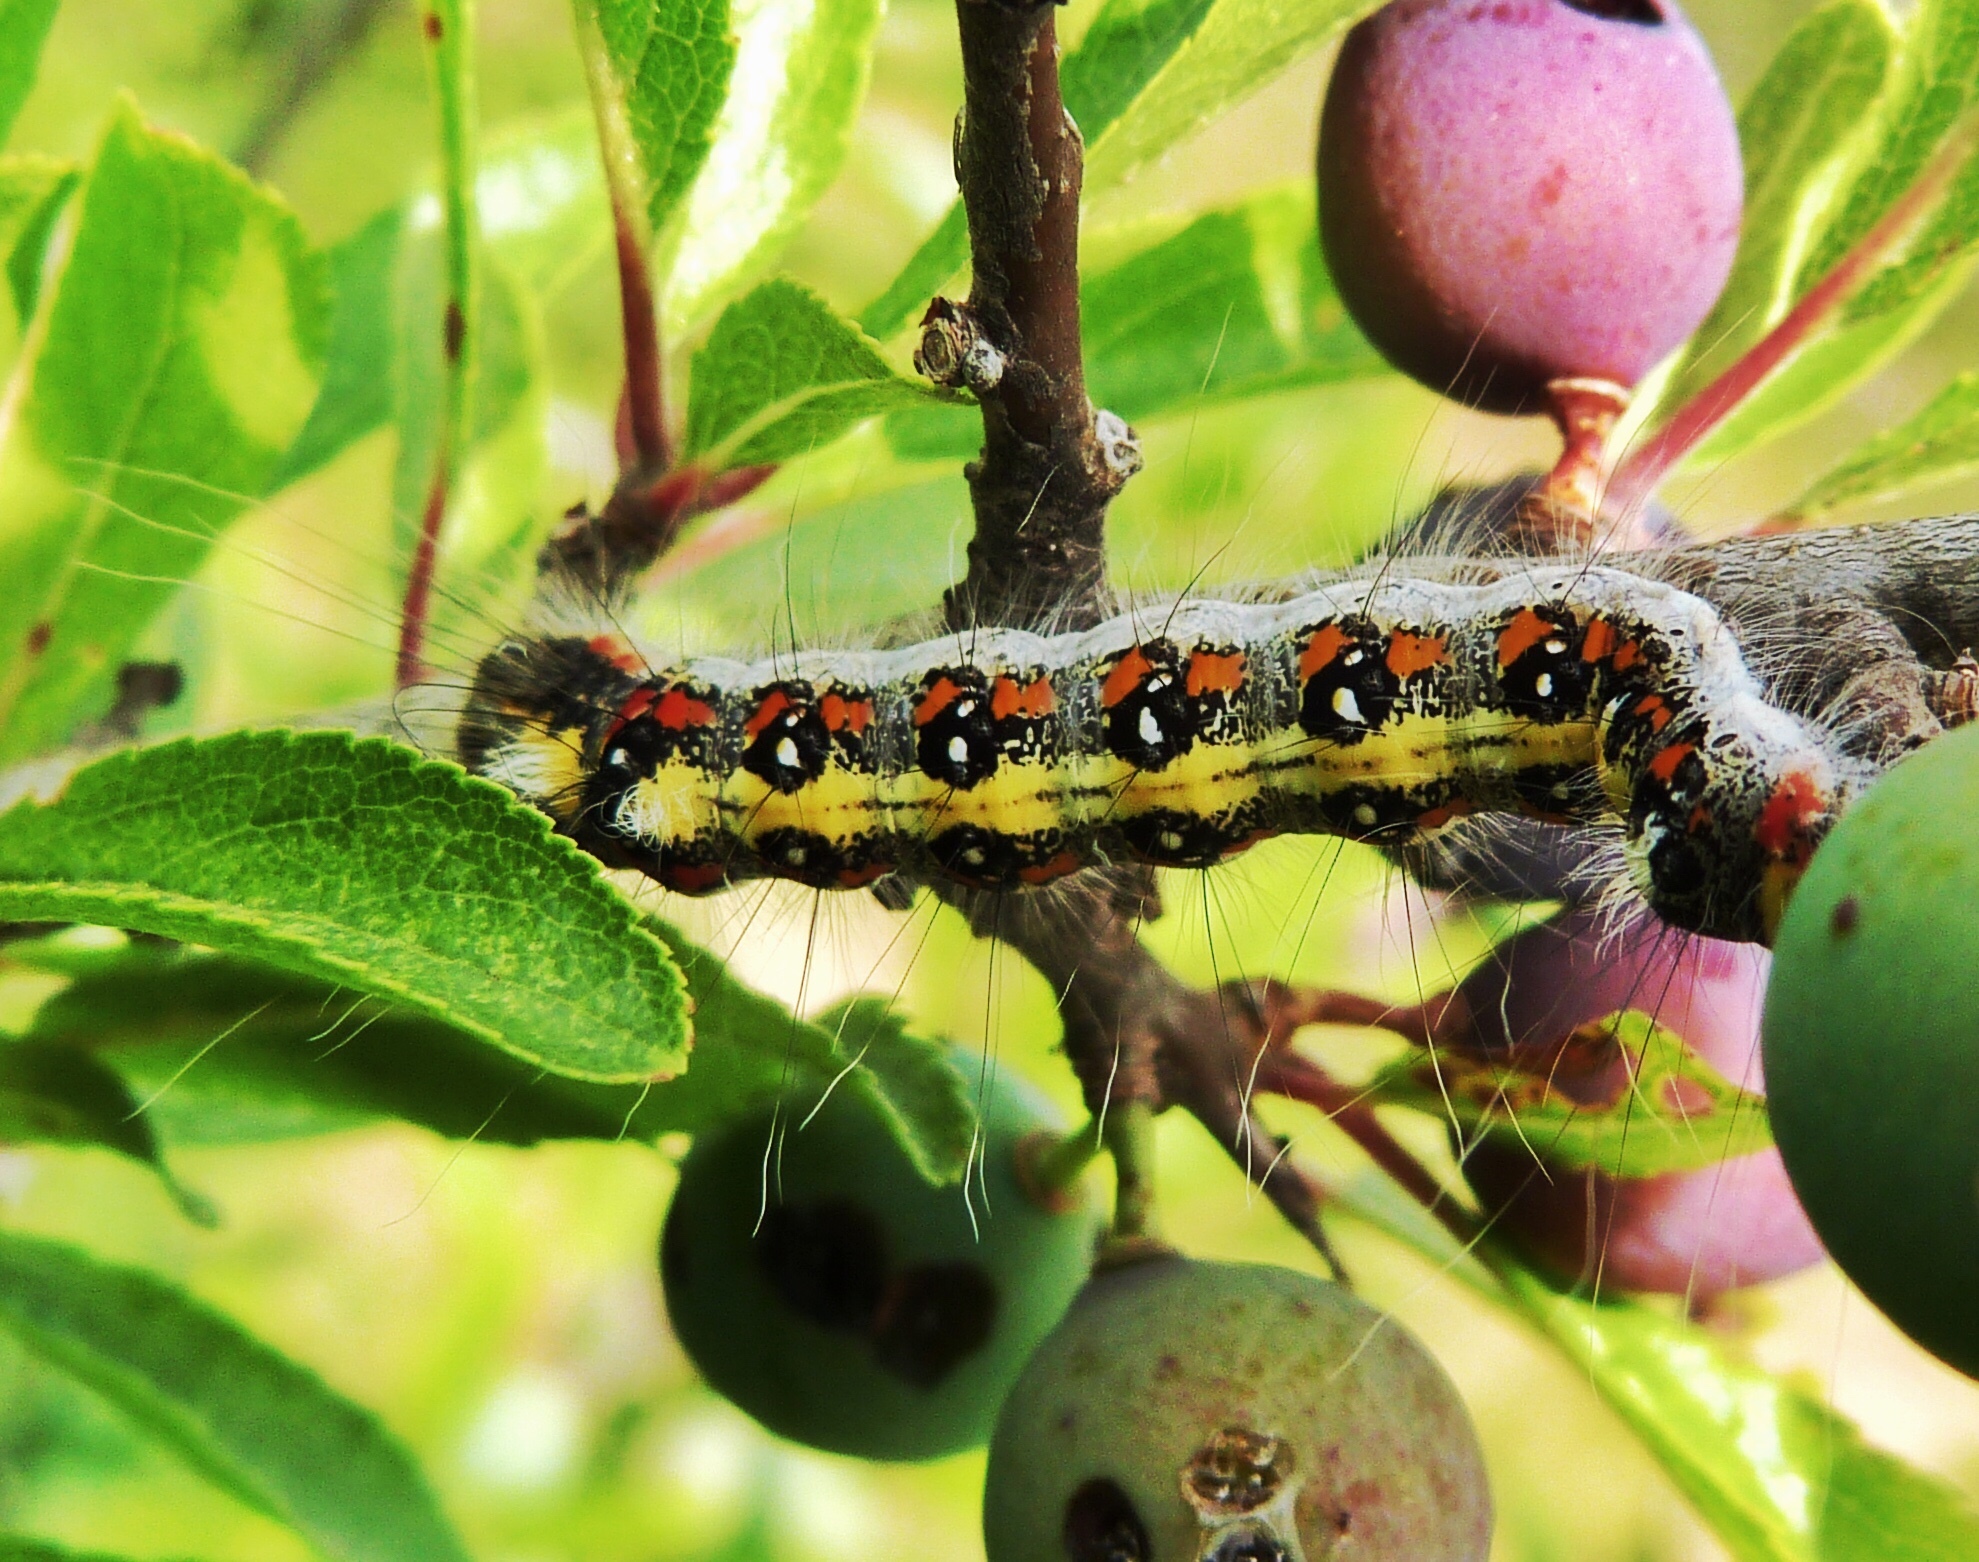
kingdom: Animalia
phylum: Arthropoda
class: Insecta
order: Lepidoptera
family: Noctuidae
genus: Acronicta
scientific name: Acronicta tridens
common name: Dark dagger
